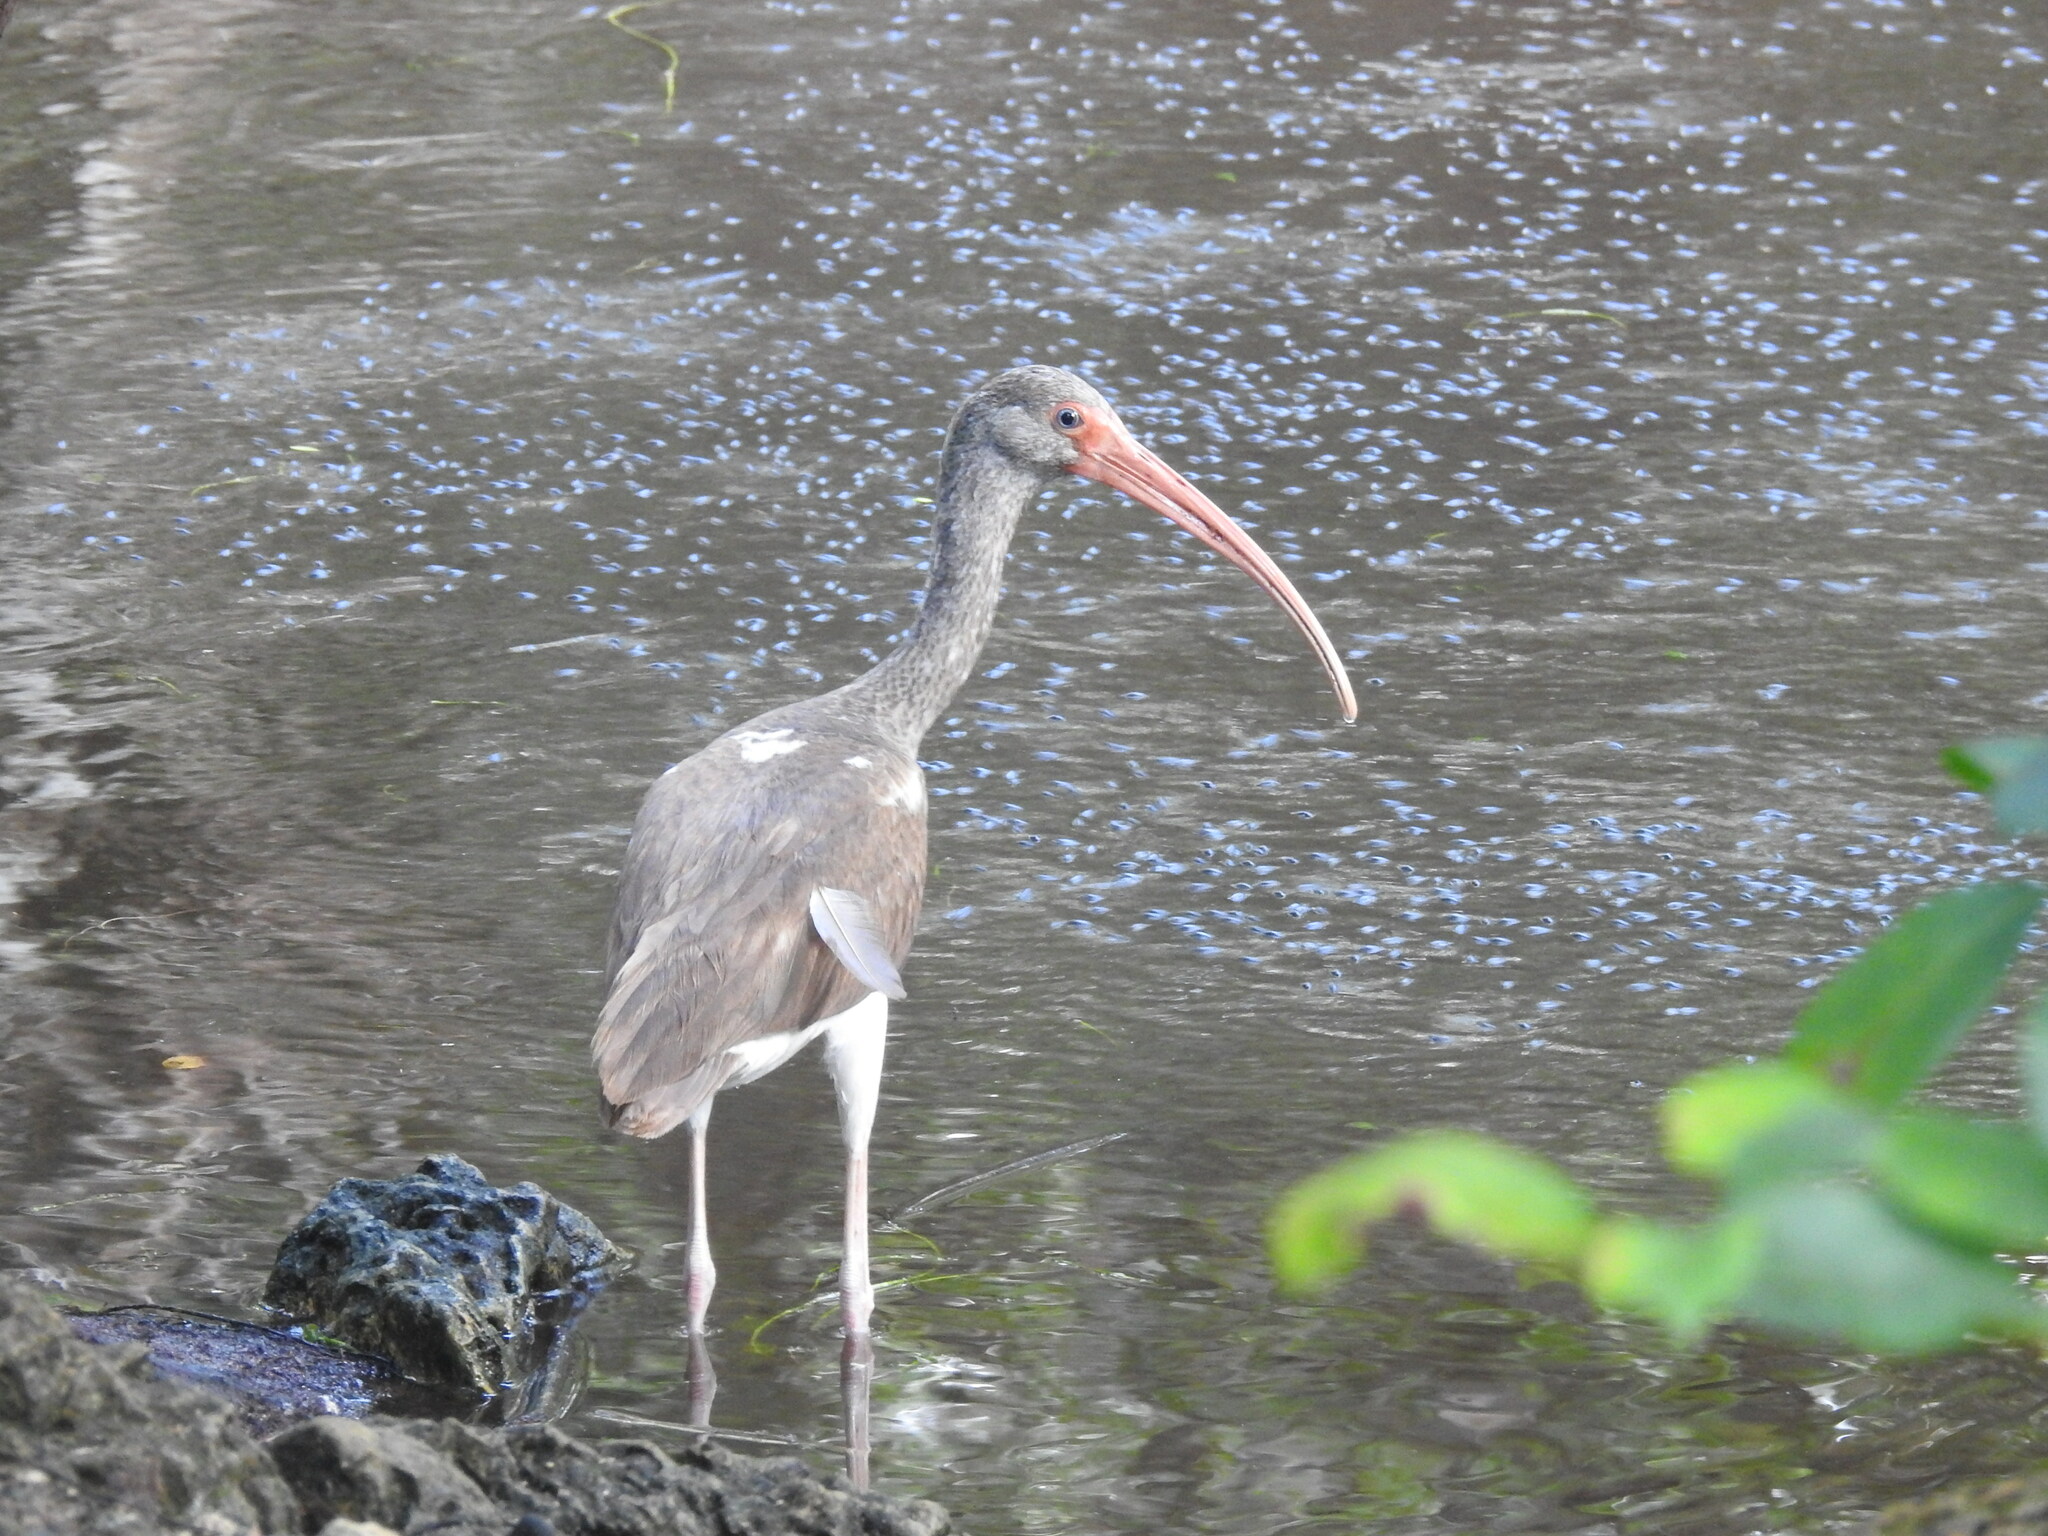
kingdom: Animalia
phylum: Chordata
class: Aves
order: Pelecaniformes
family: Threskiornithidae
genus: Eudocimus
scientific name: Eudocimus albus
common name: White ibis
